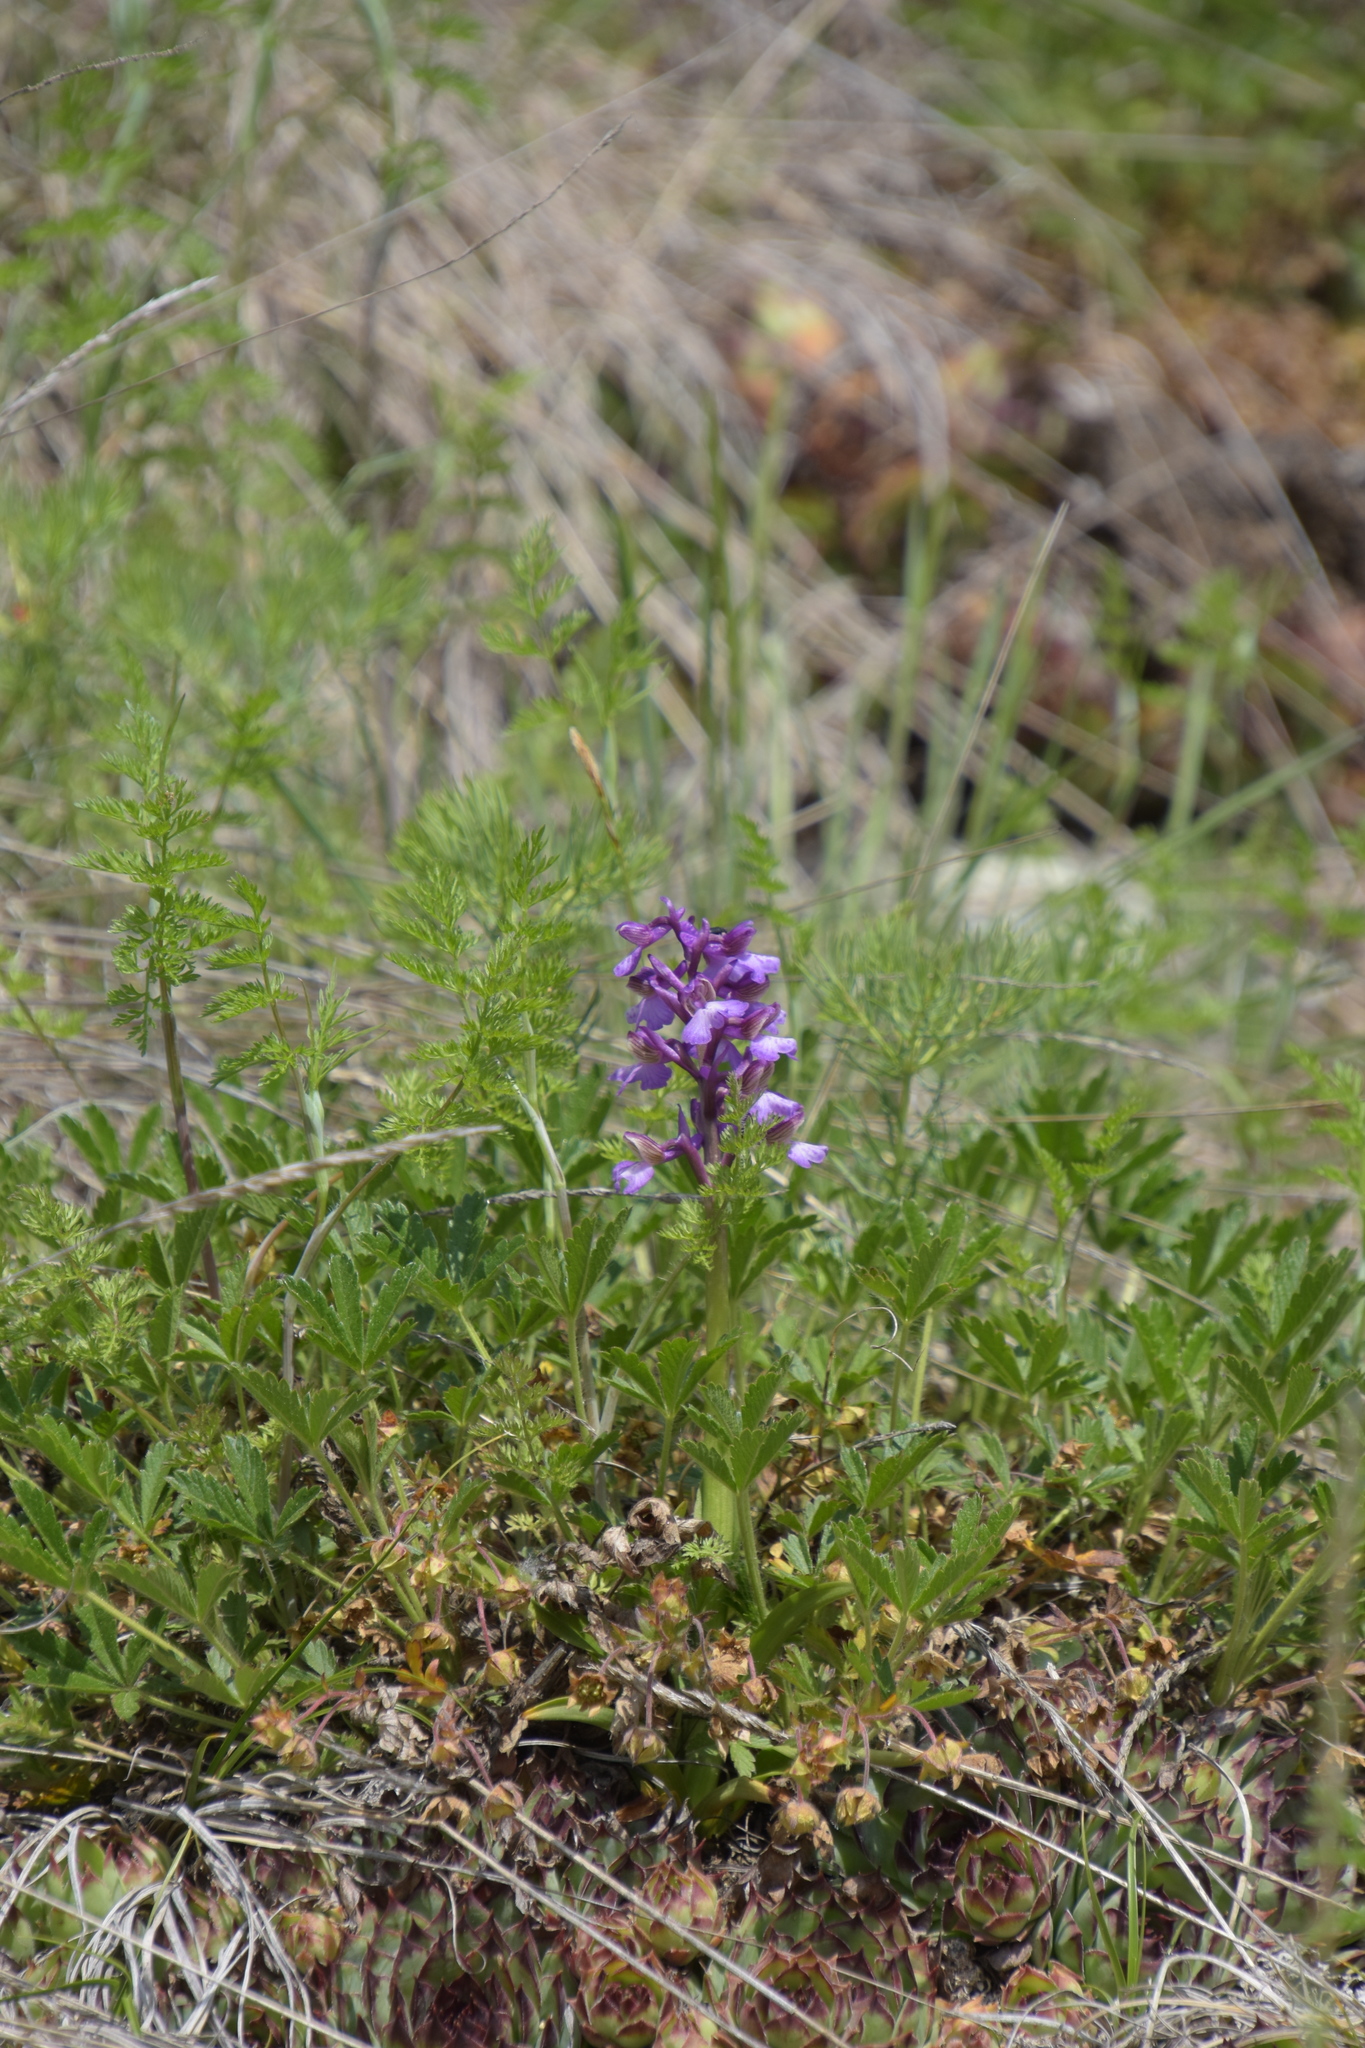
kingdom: Plantae
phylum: Tracheophyta
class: Liliopsida
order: Asparagales
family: Orchidaceae
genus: Anacamptis
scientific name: Anacamptis morio
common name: Green-winged orchid
